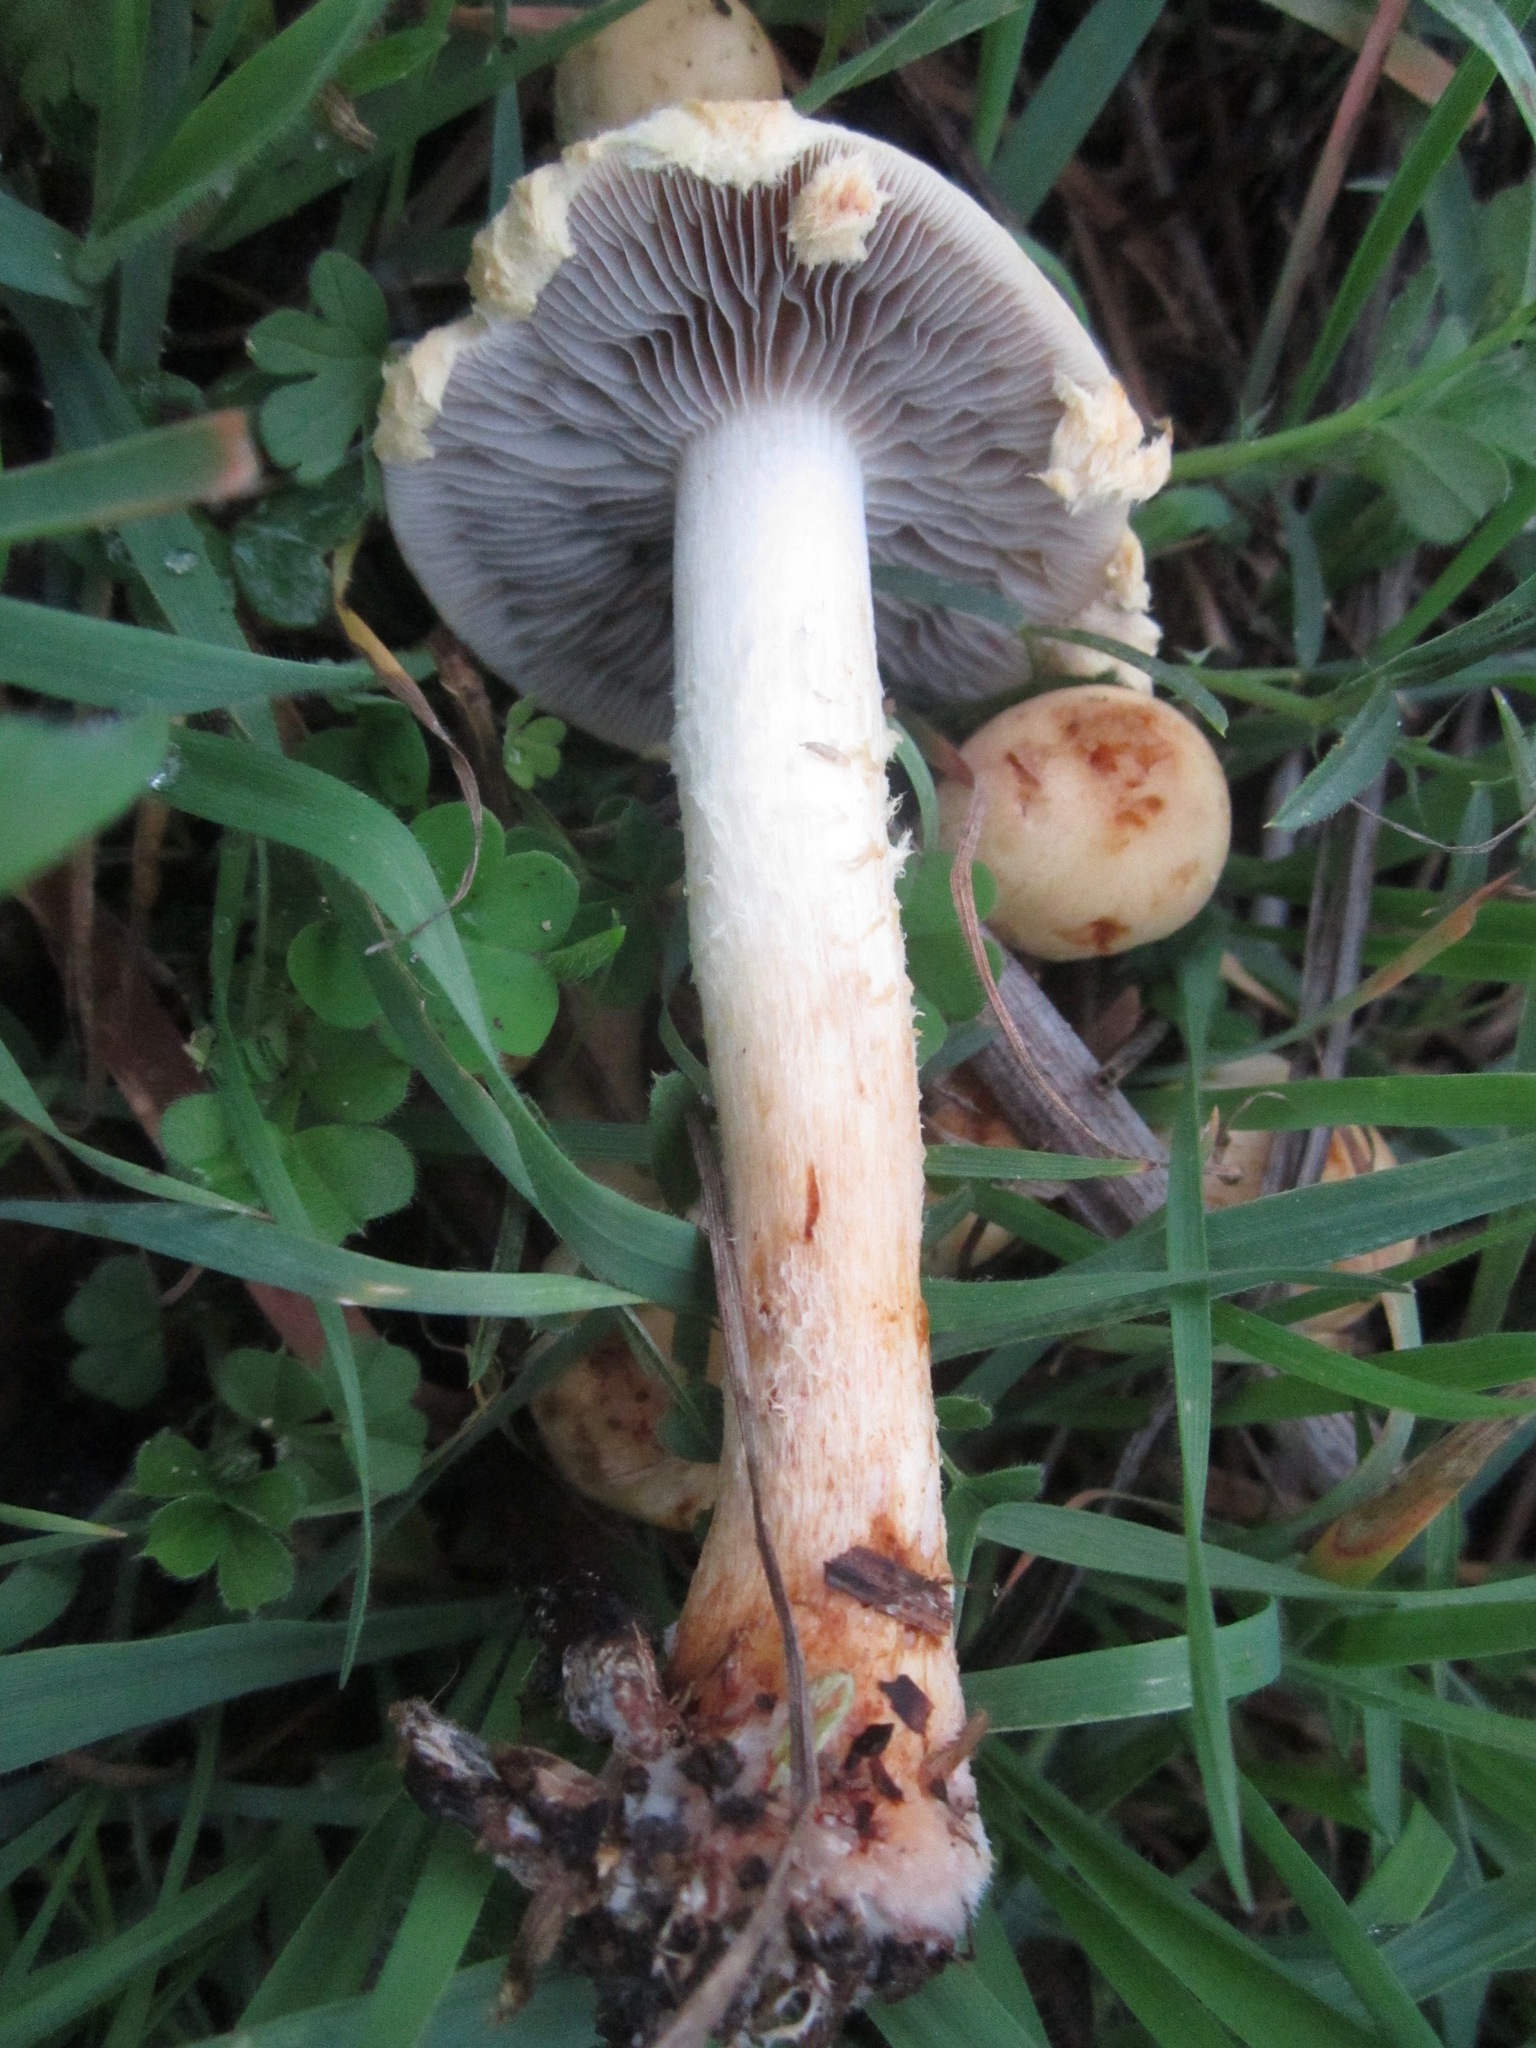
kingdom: Fungi
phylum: Basidiomycota
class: Agaricomycetes
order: Agaricales
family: Strophariaceae
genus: Leratiomyces
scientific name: Leratiomyces percevalii
